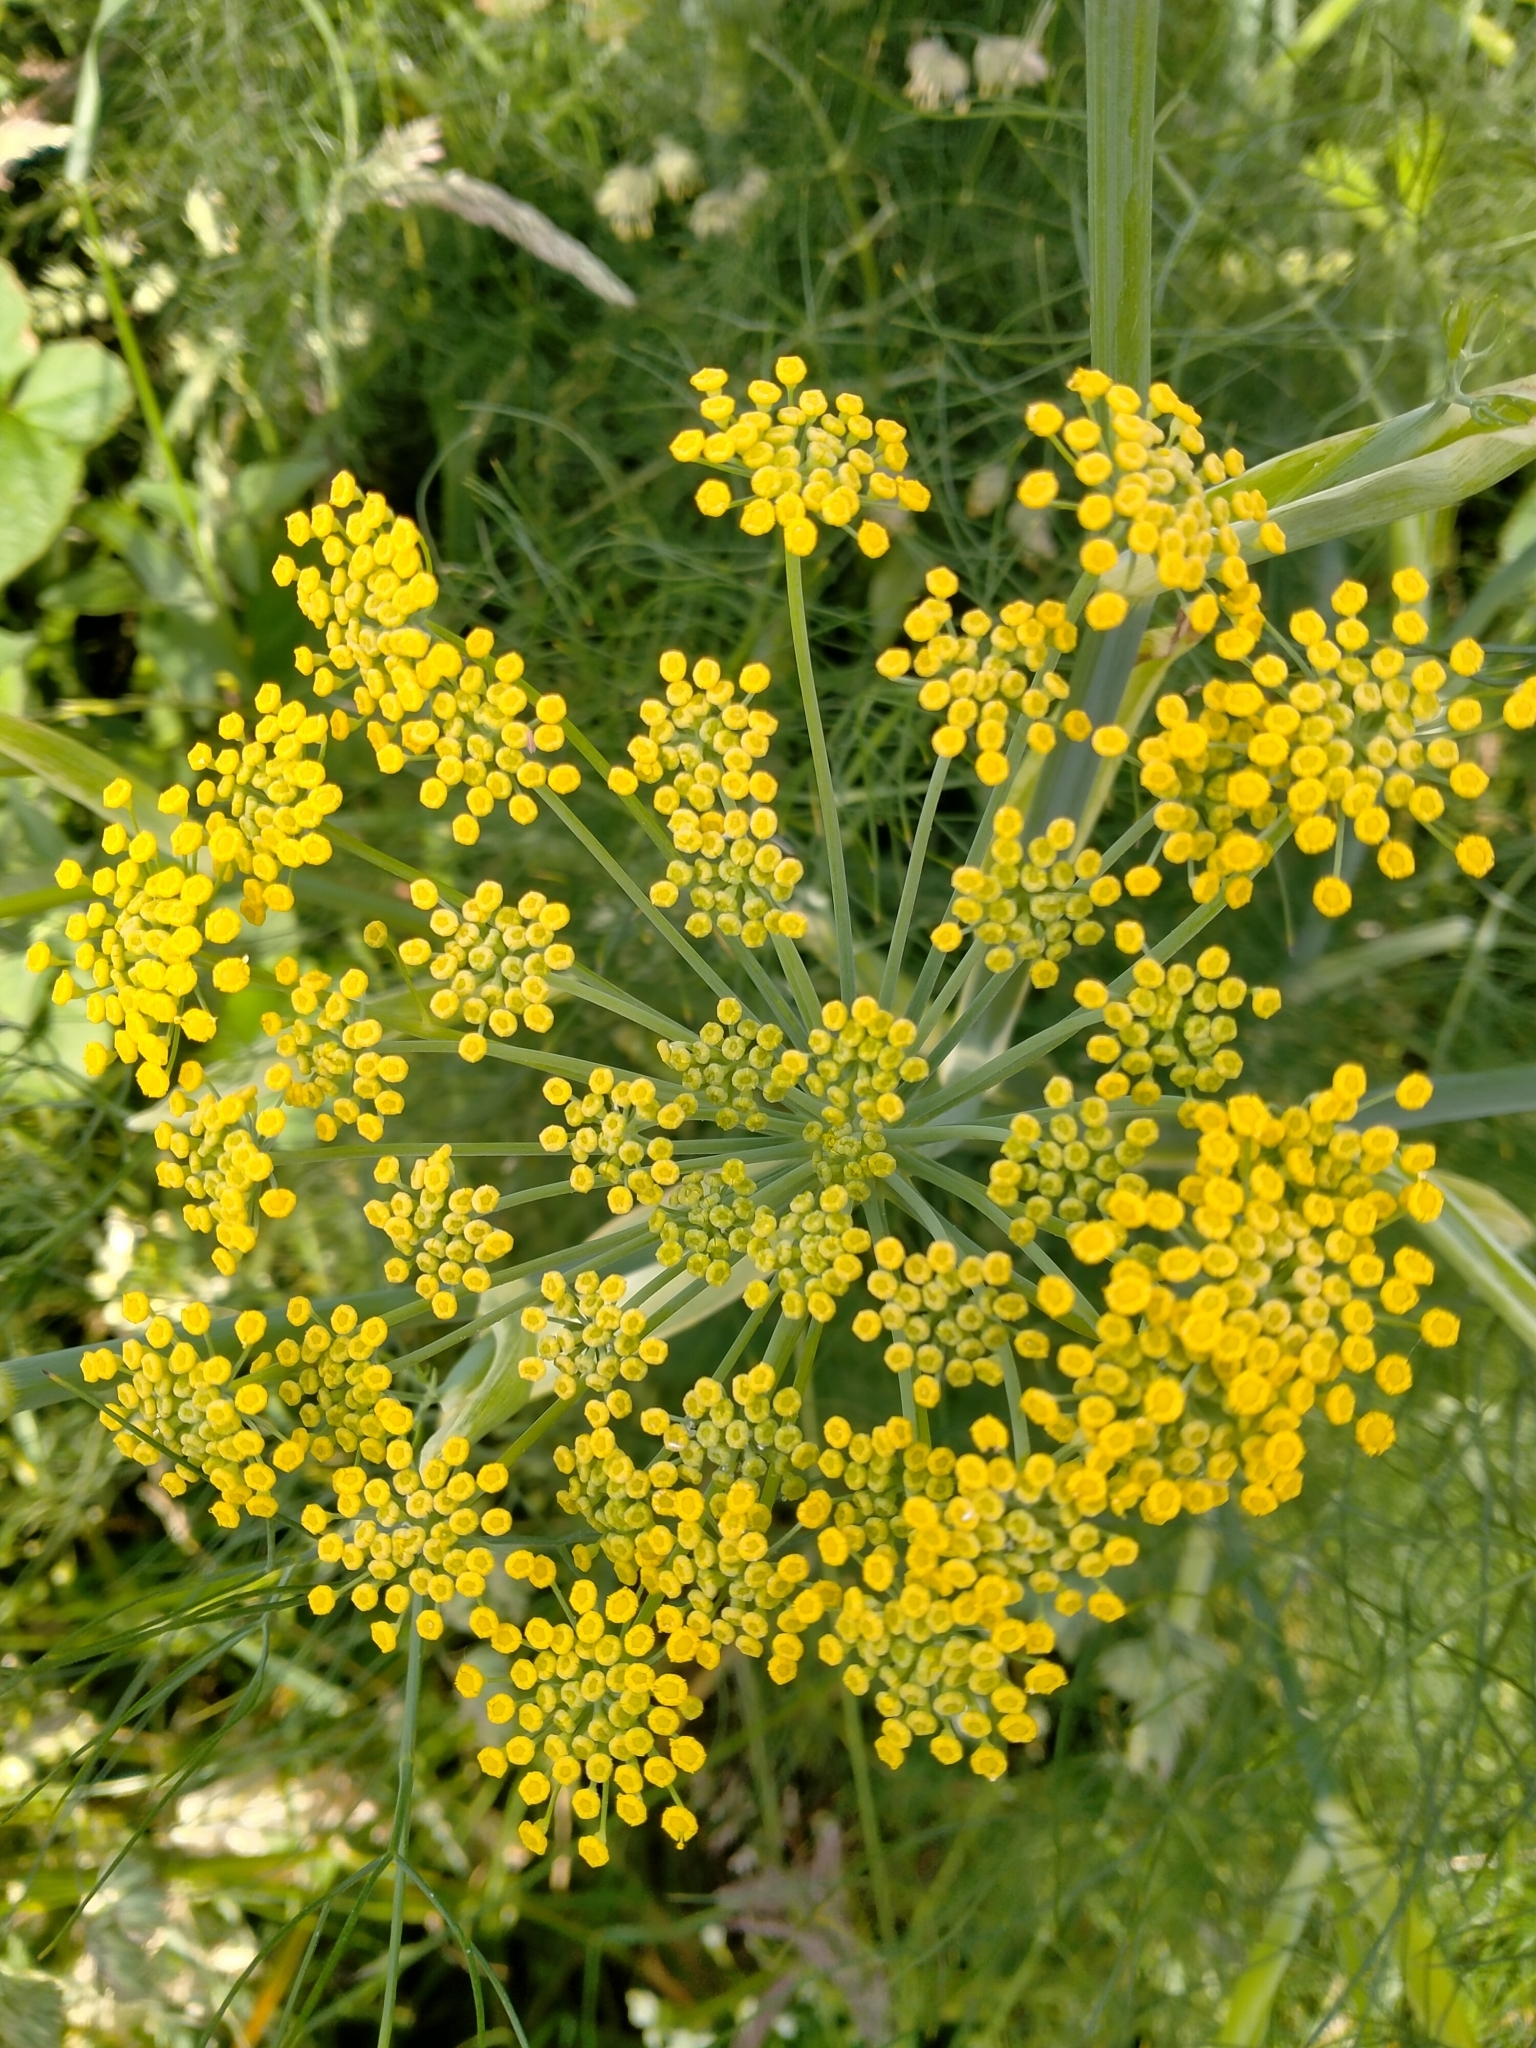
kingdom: Plantae
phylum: Tracheophyta
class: Magnoliopsida
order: Apiales
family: Apiaceae
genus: Foeniculum
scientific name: Foeniculum vulgare
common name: Fennel
